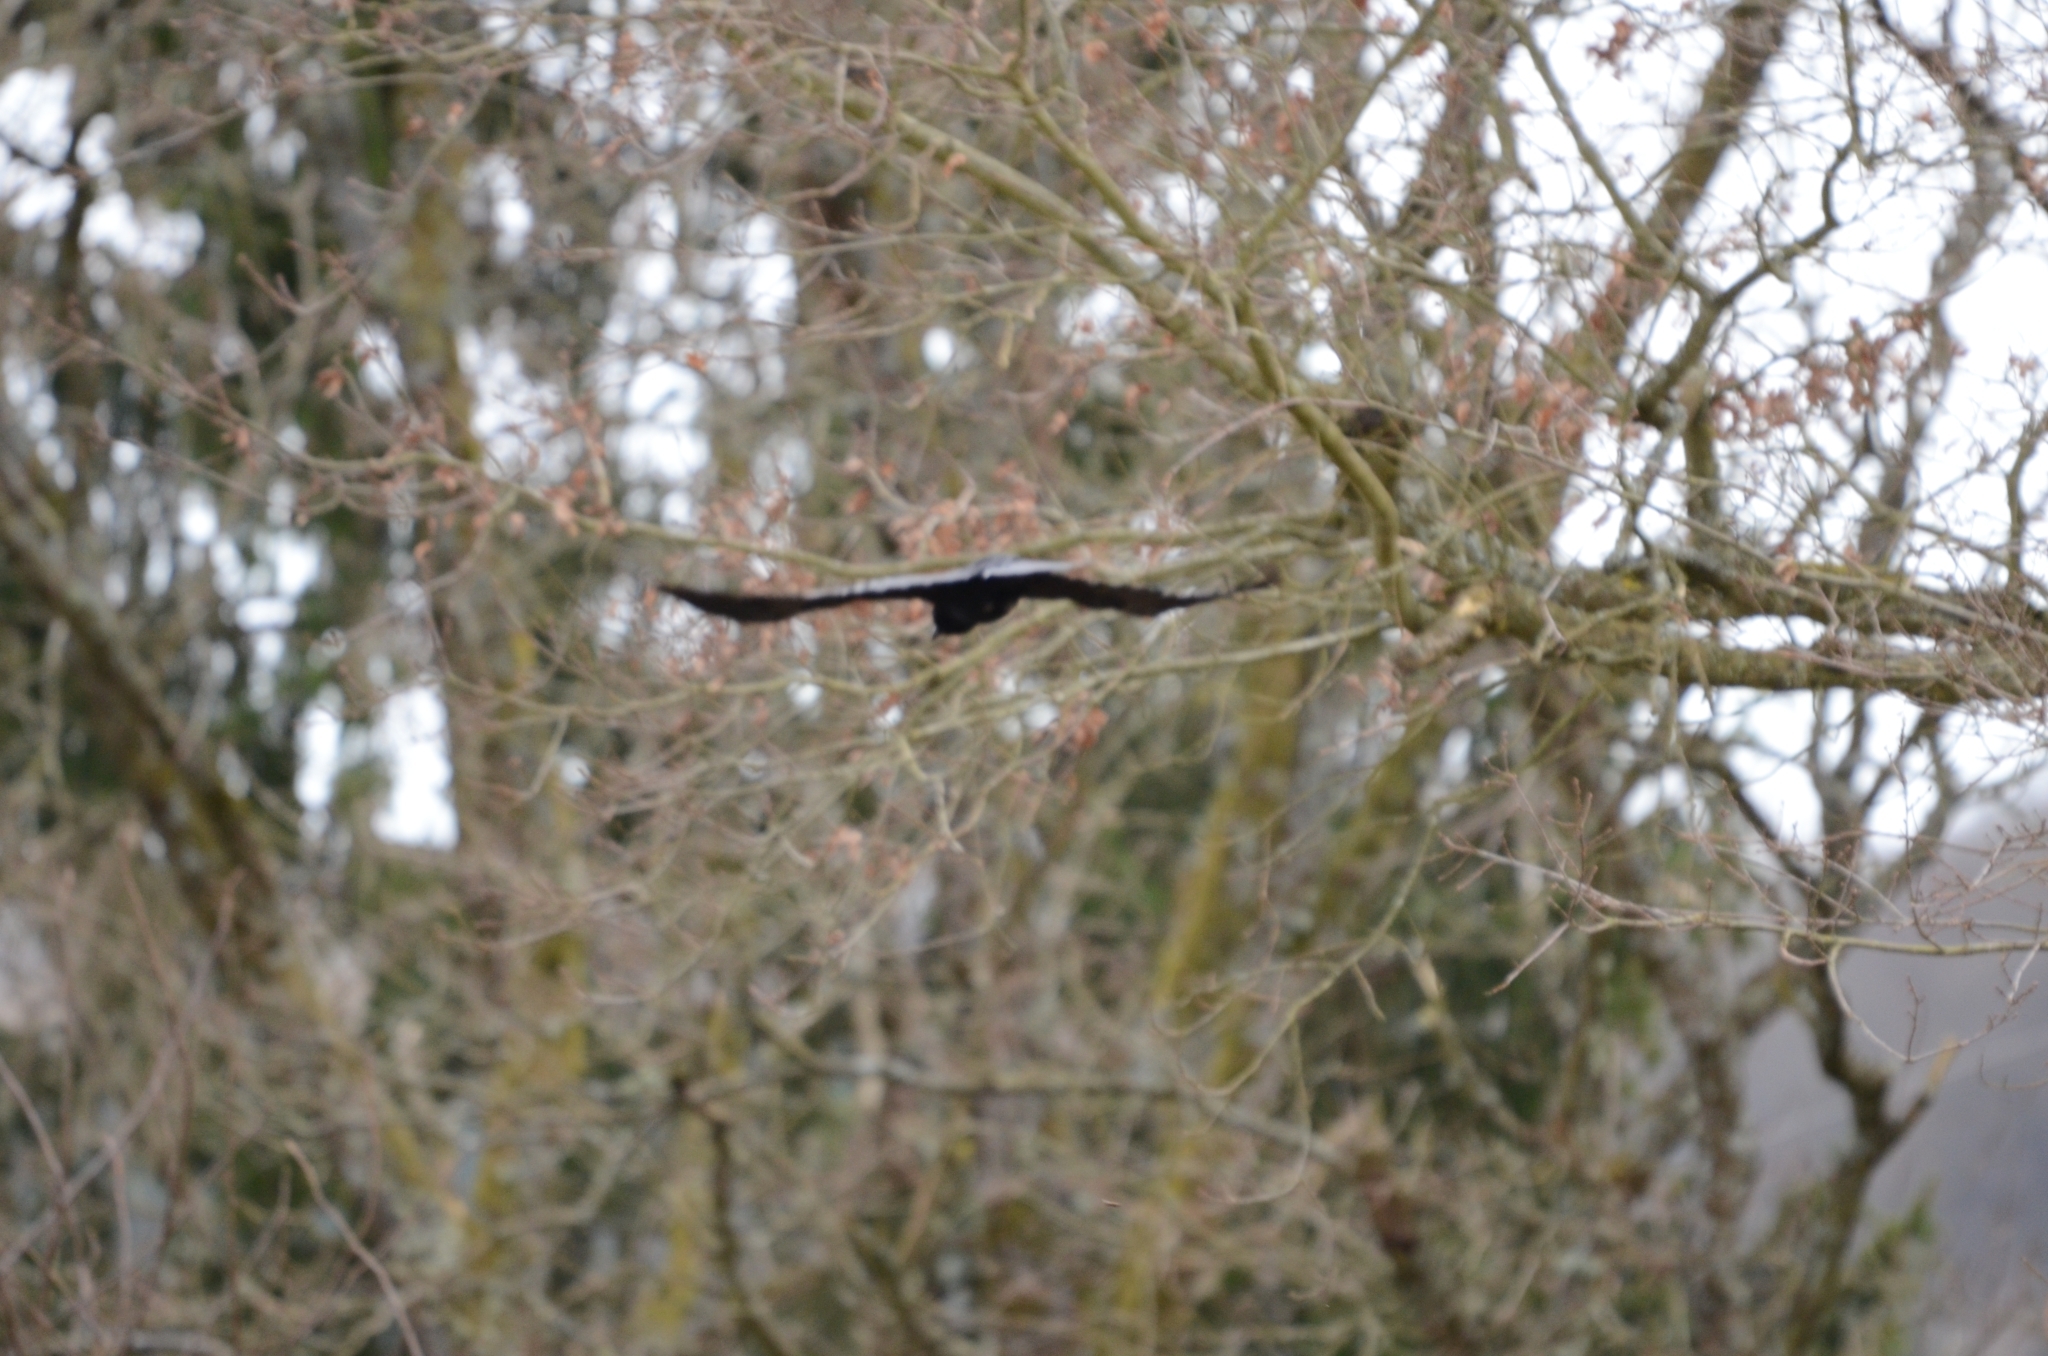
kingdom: Animalia
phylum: Chordata
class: Aves
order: Passeriformes
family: Corvidae
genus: Corvus
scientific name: Corvus corone
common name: Carrion crow
